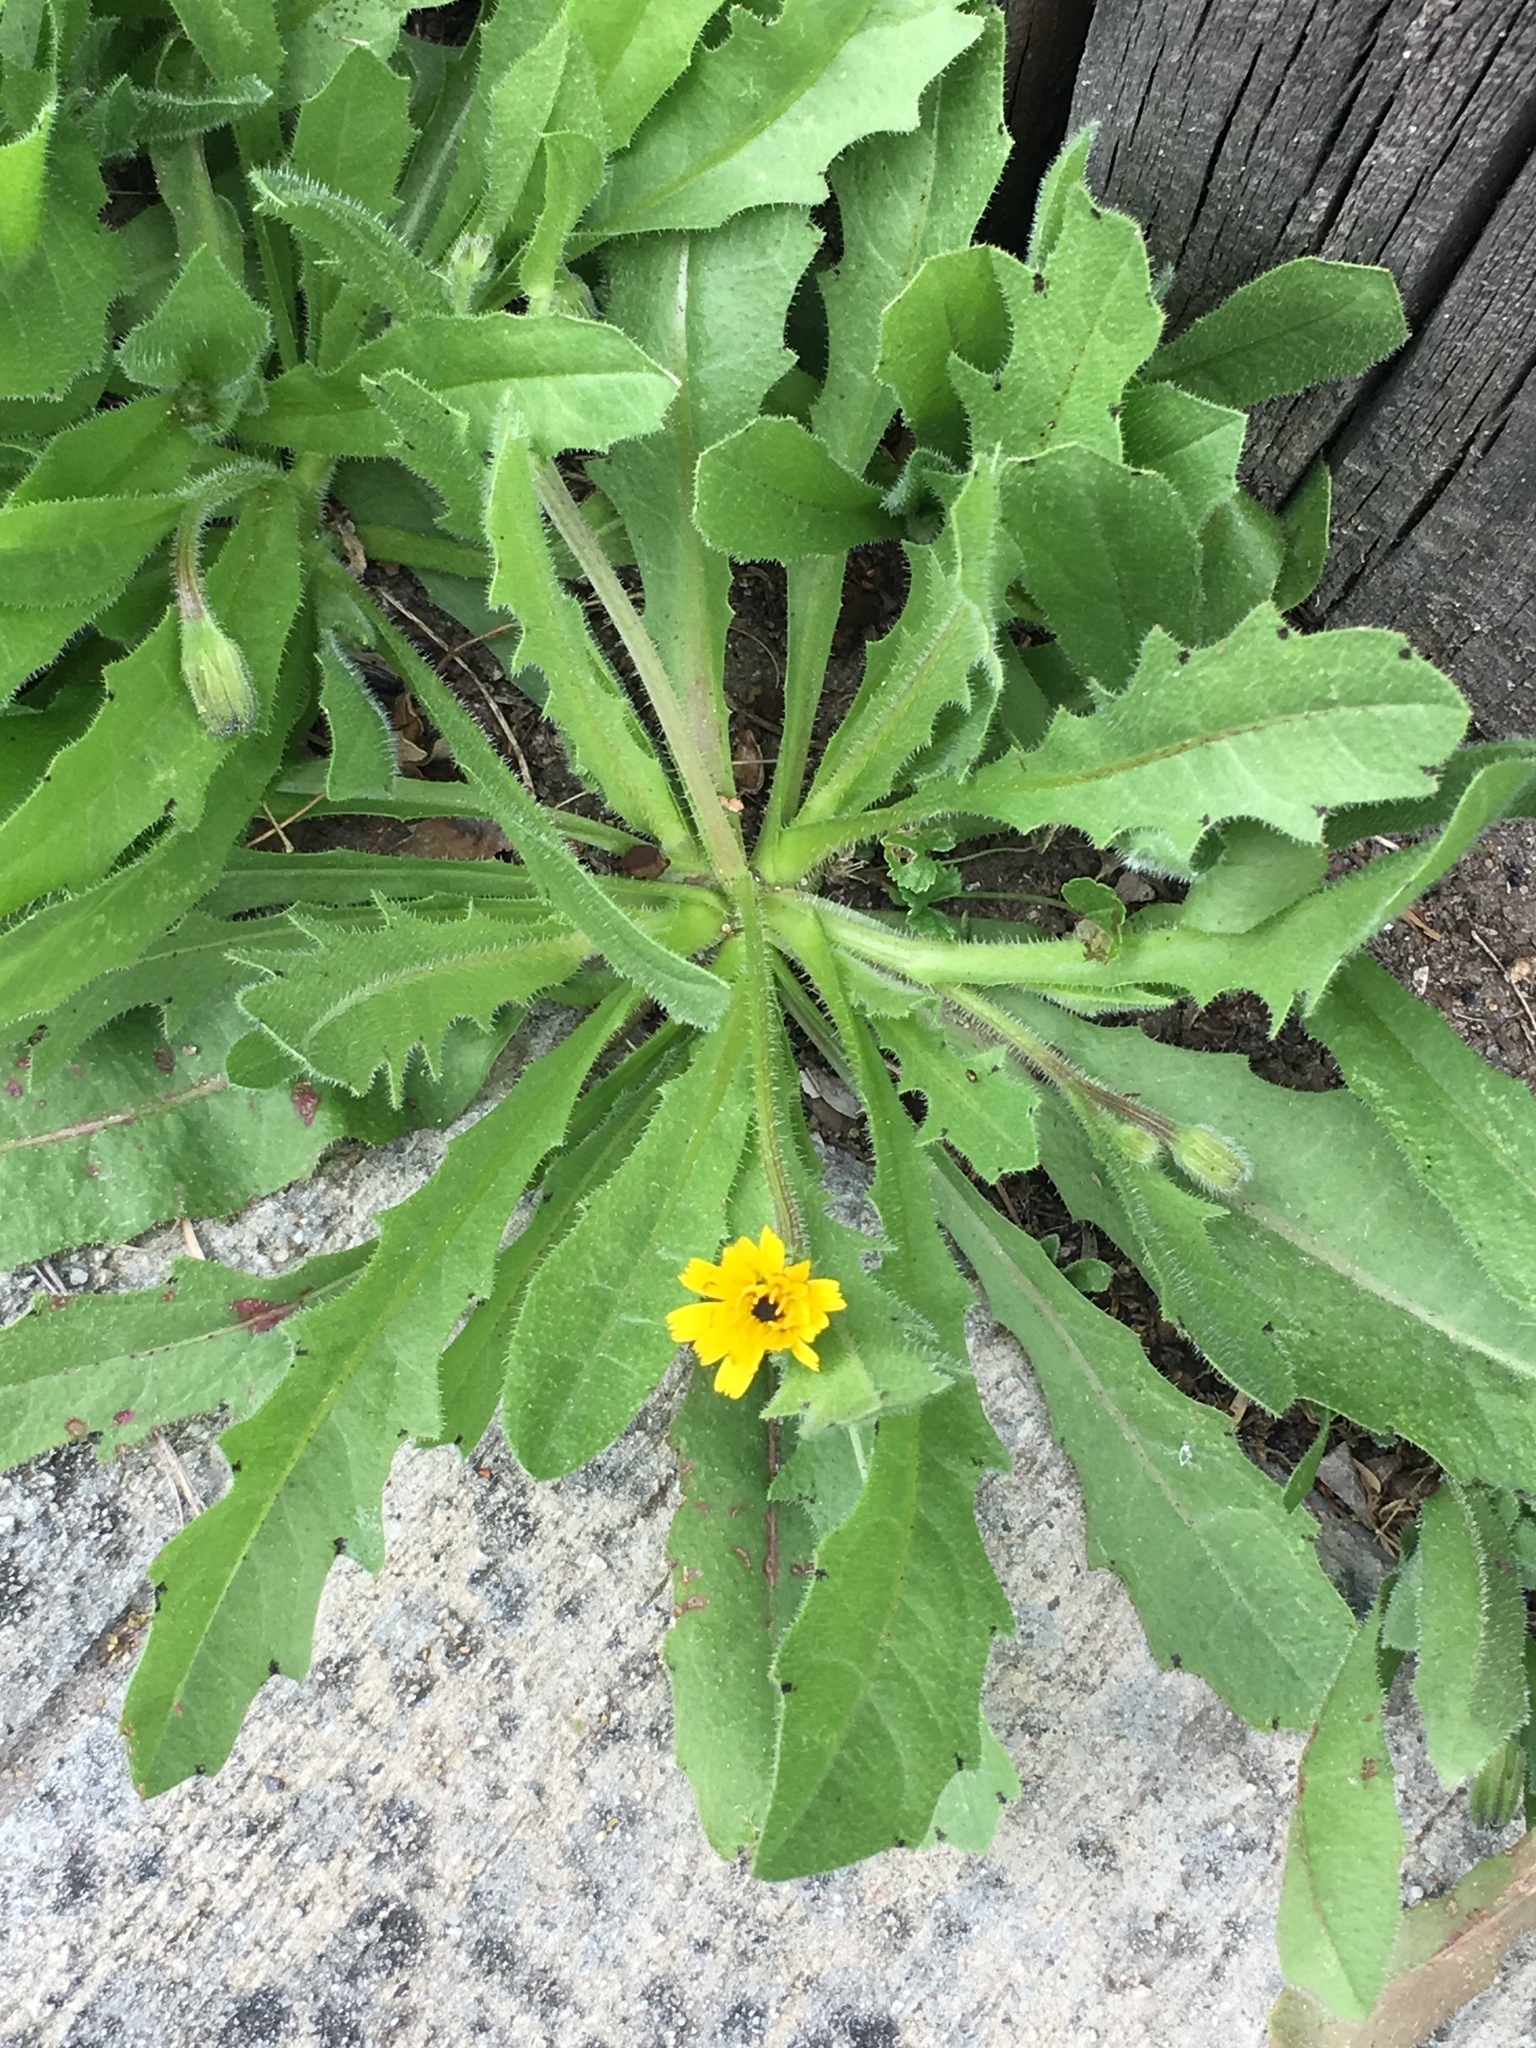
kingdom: Plantae
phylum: Tracheophyta
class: Magnoliopsida
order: Asterales
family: Asteraceae
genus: Hedypnois
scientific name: Hedypnois rhagadioloides
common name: Cretan weed
